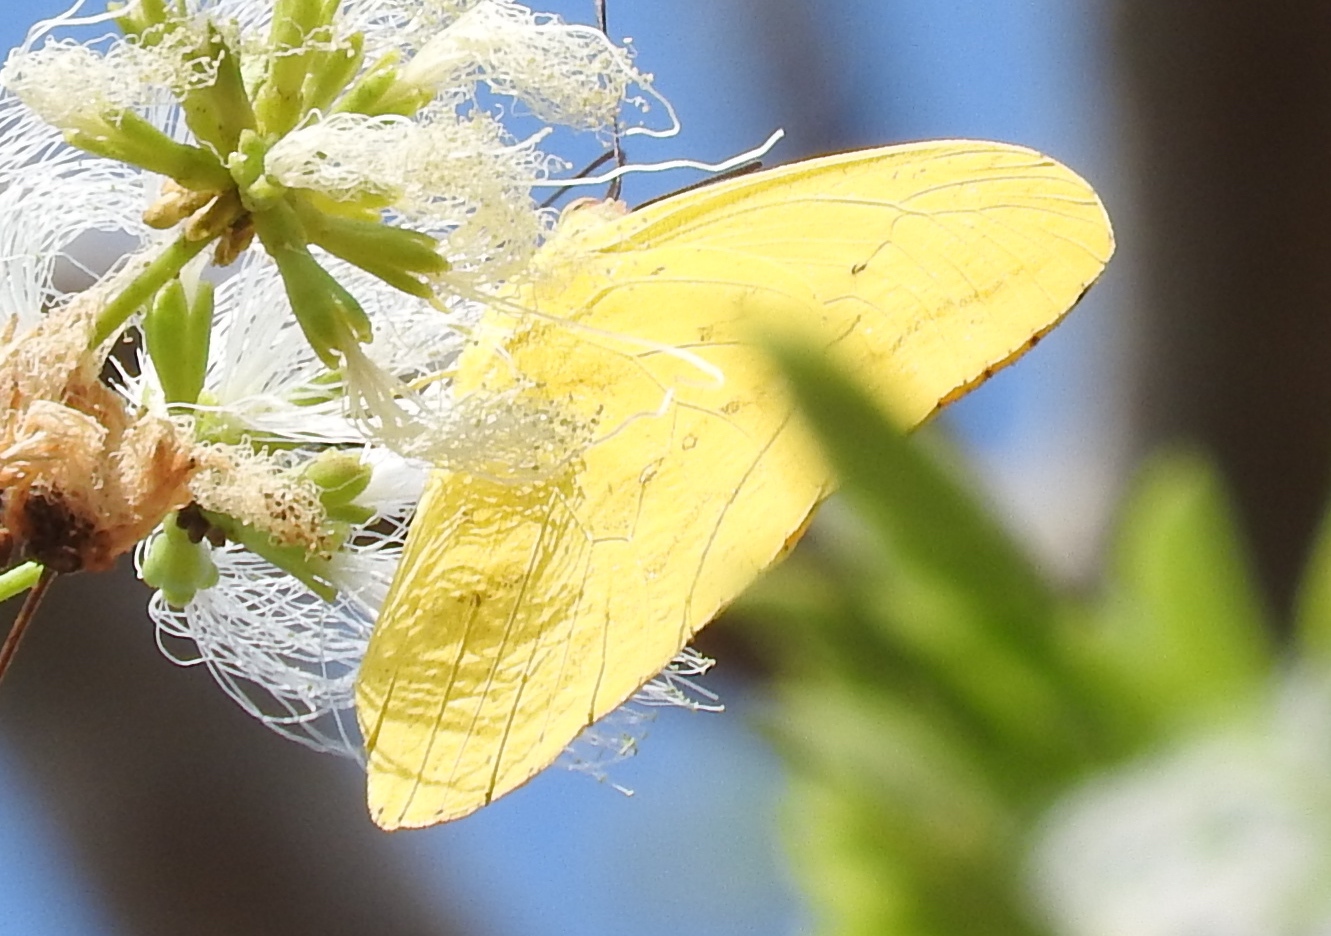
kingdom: Animalia
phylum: Arthropoda
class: Insecta
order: Lepidoptera
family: Pieridae
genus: Phoebis
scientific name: Phoebis agarithe
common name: Large orange sulphur
